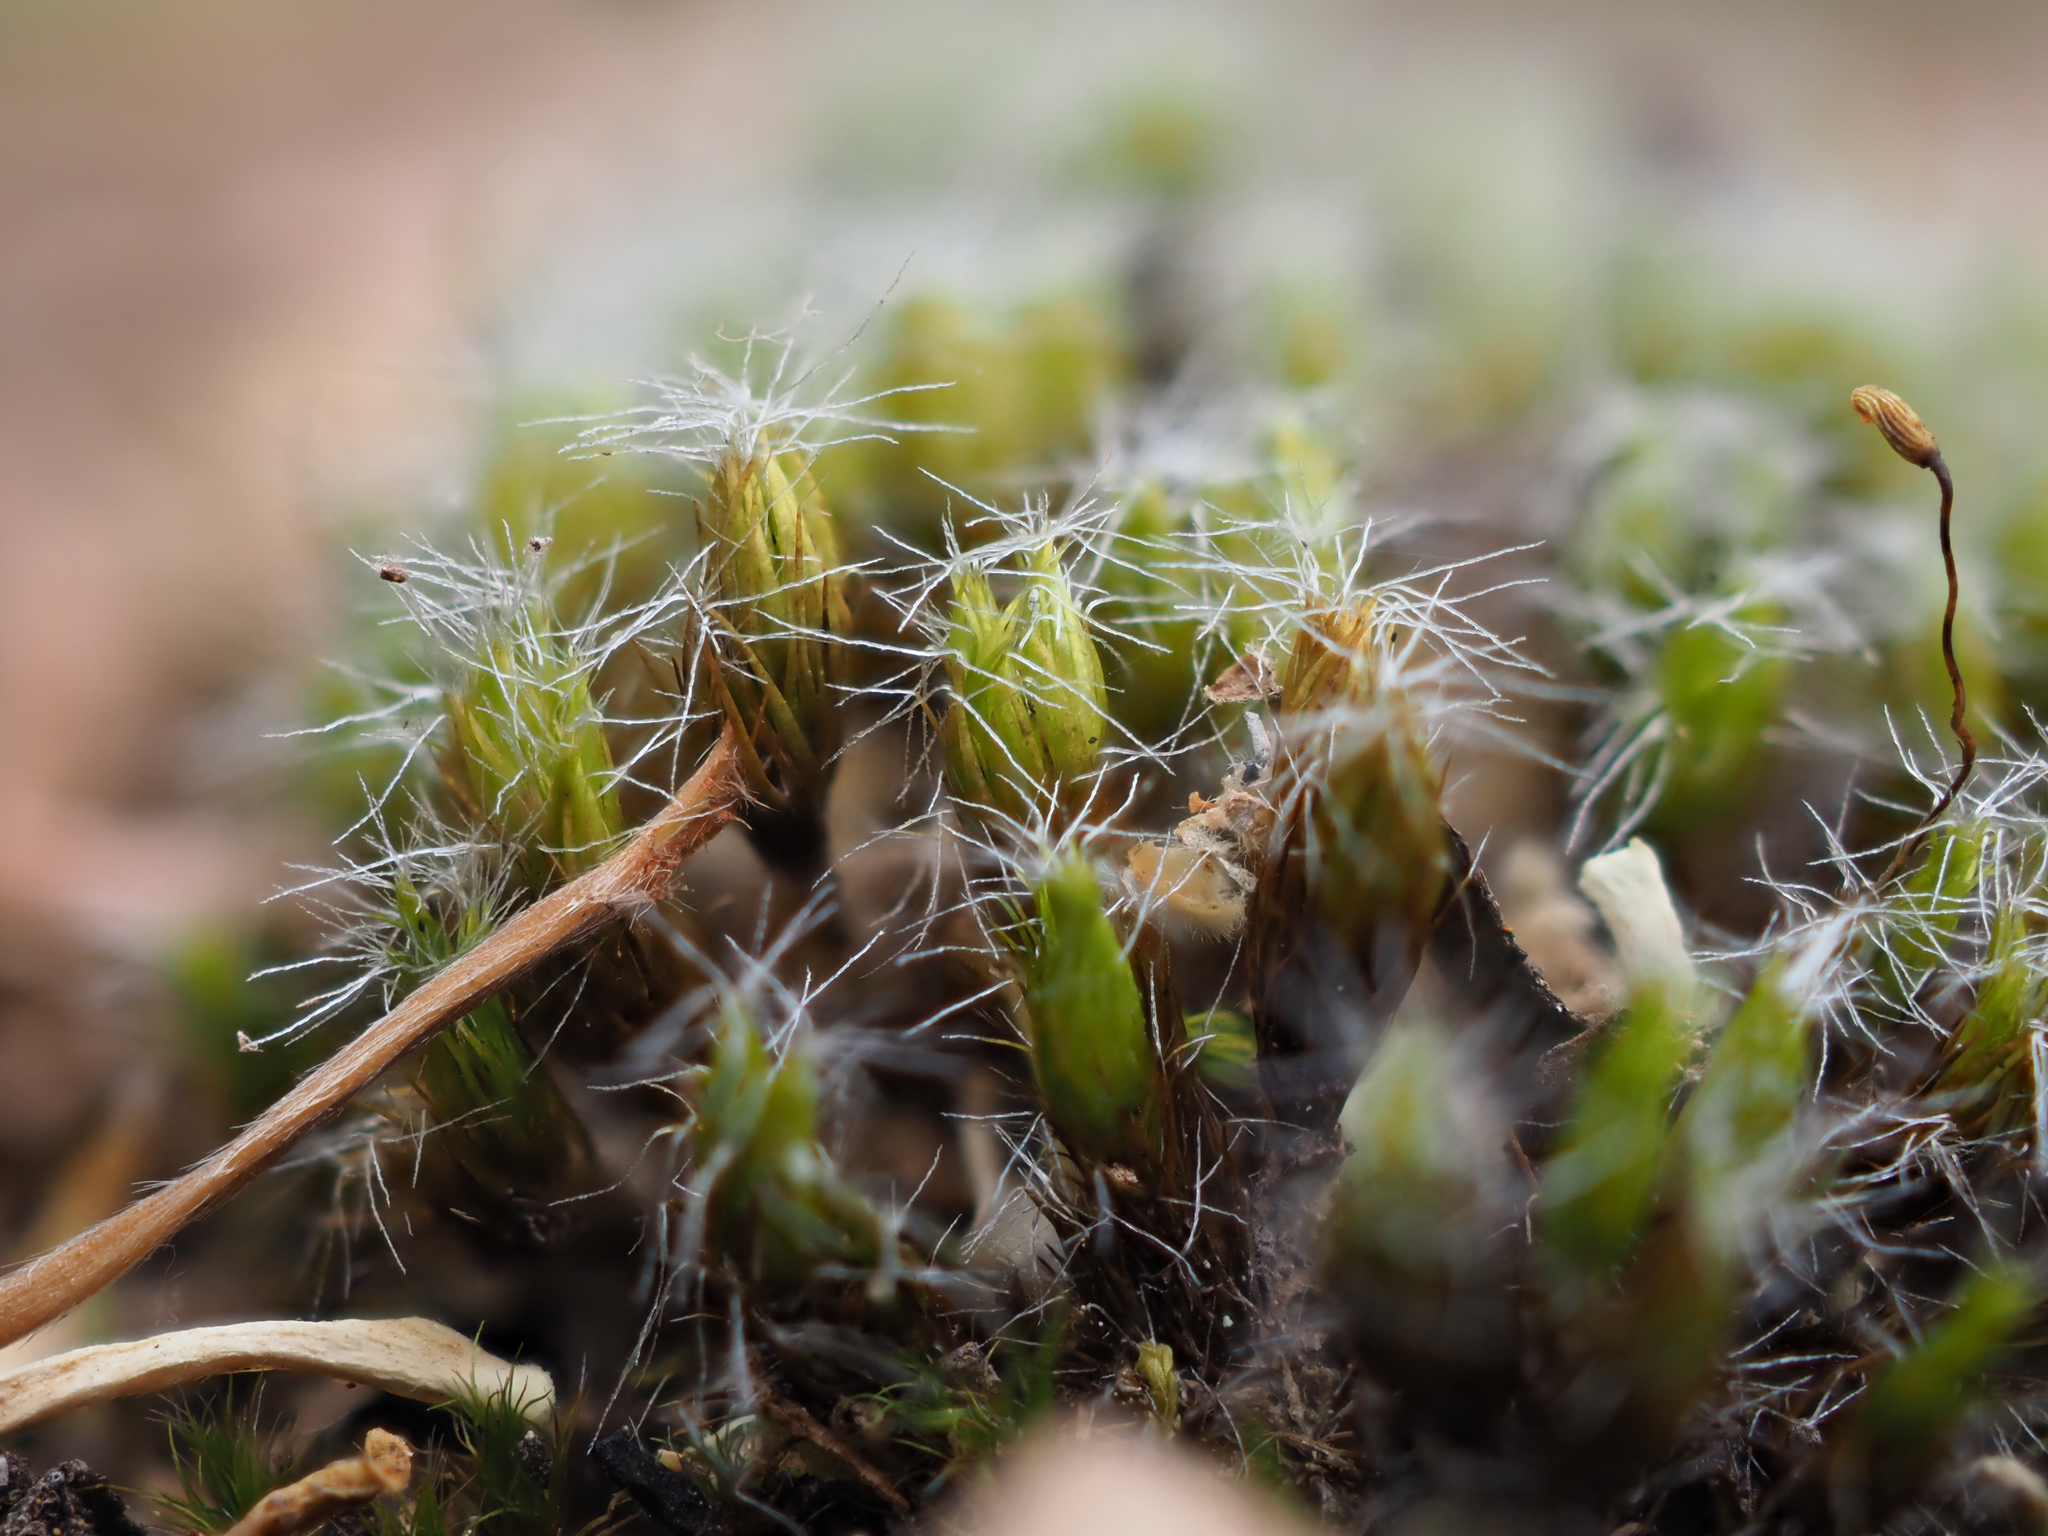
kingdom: Plantae
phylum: Bryophyta
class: Bryopsida
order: Dicranales
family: Leucobryaceae
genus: Campylopus
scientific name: Campylopus introflexus
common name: Heath star moss
